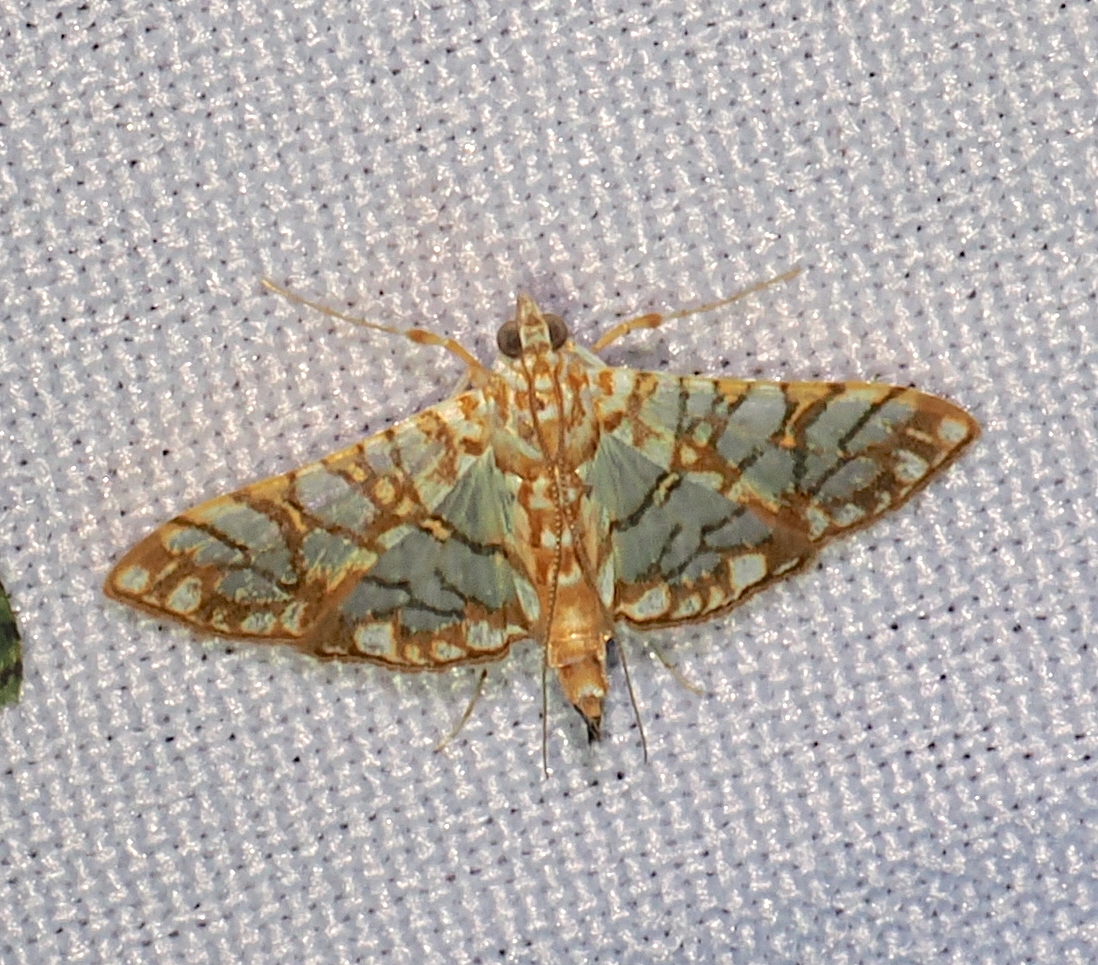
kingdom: Animalia
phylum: Arthropoda
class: Insecta
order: Lepidoptera
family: Crambidae
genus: Synclera
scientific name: Synclera traducalis
